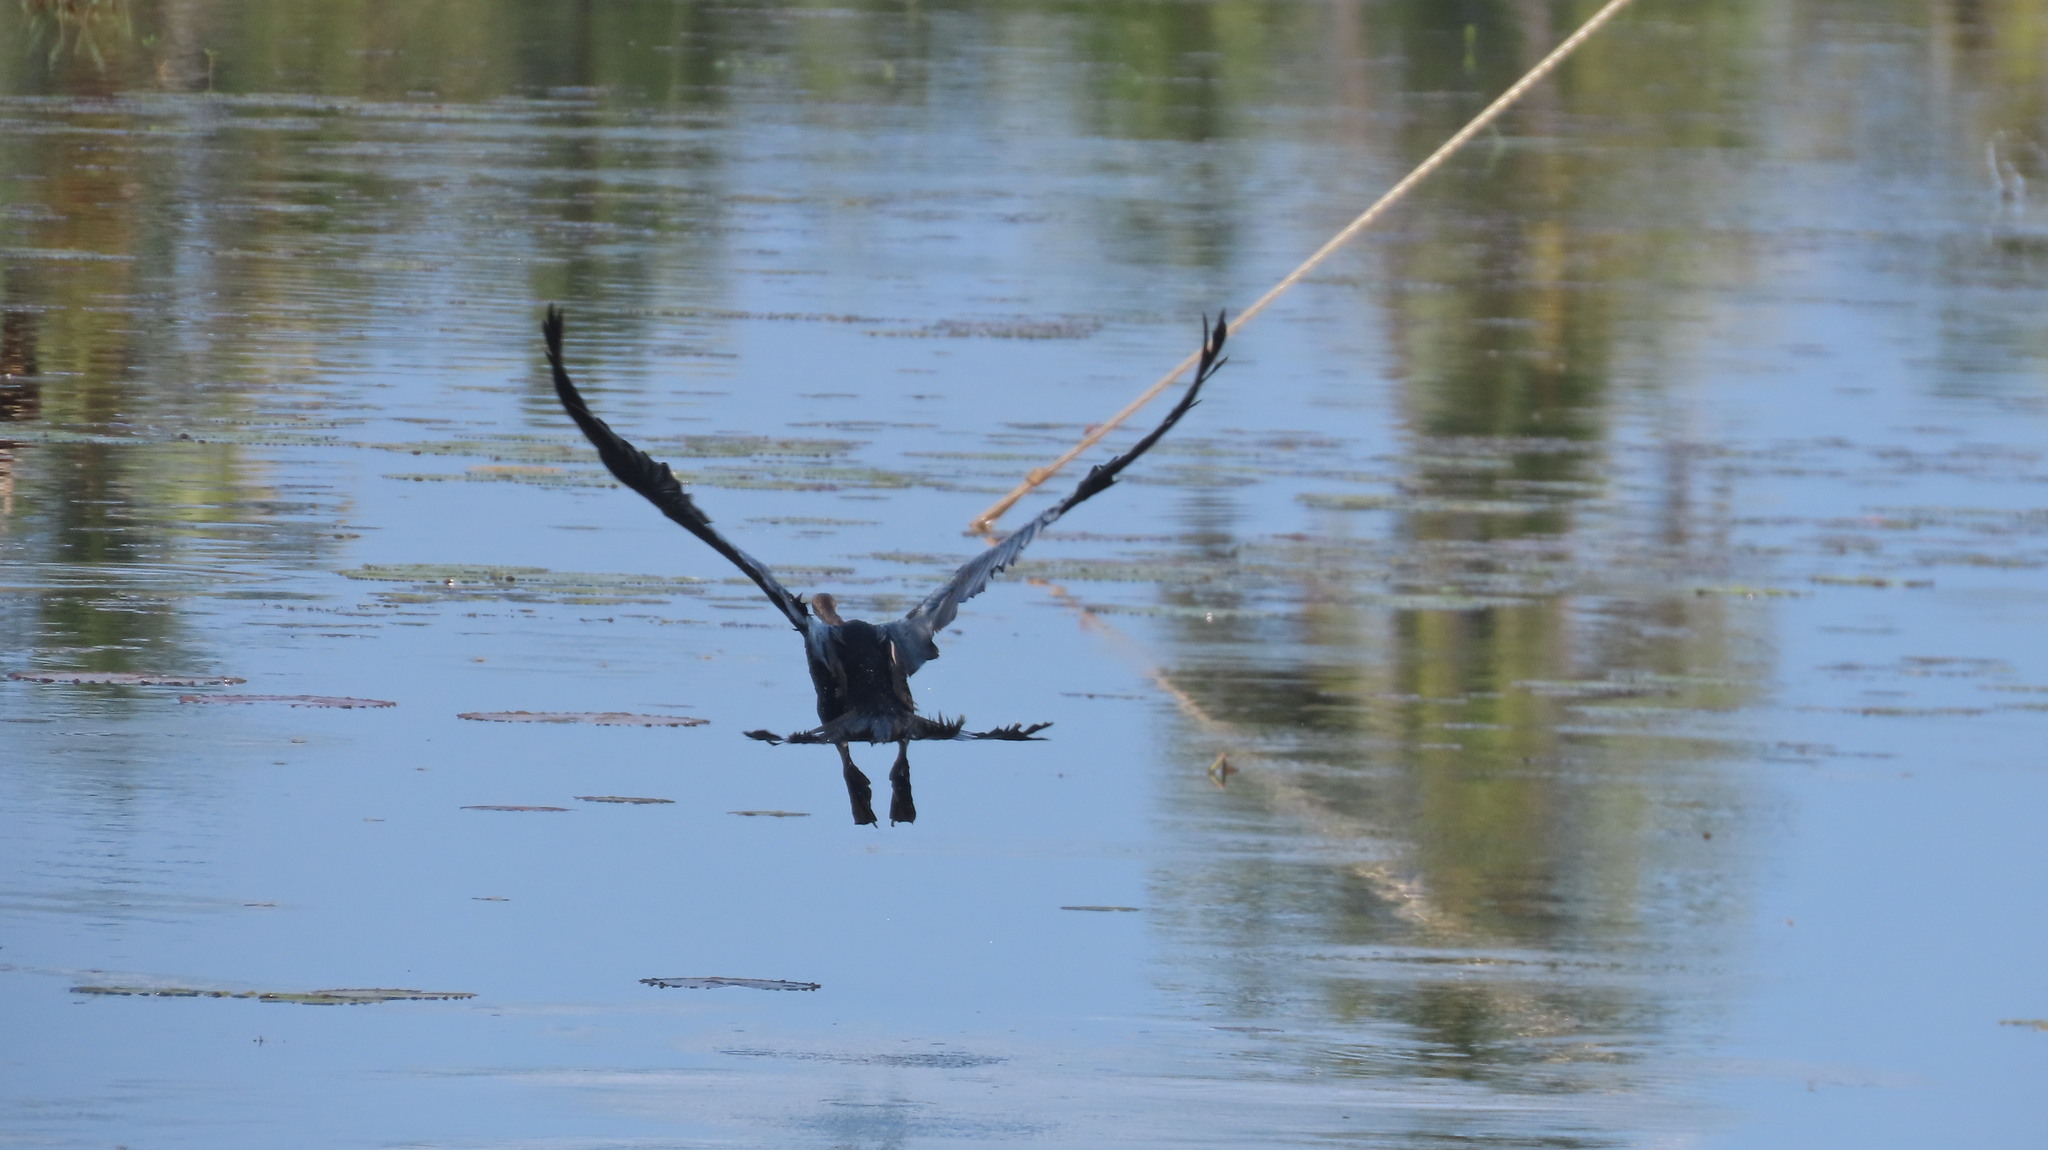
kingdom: Animalia
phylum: Chordata
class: Aves
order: Suliformes
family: Anhingidae
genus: Anhinga
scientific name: Anhinga melanogaster
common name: Oriental darter
